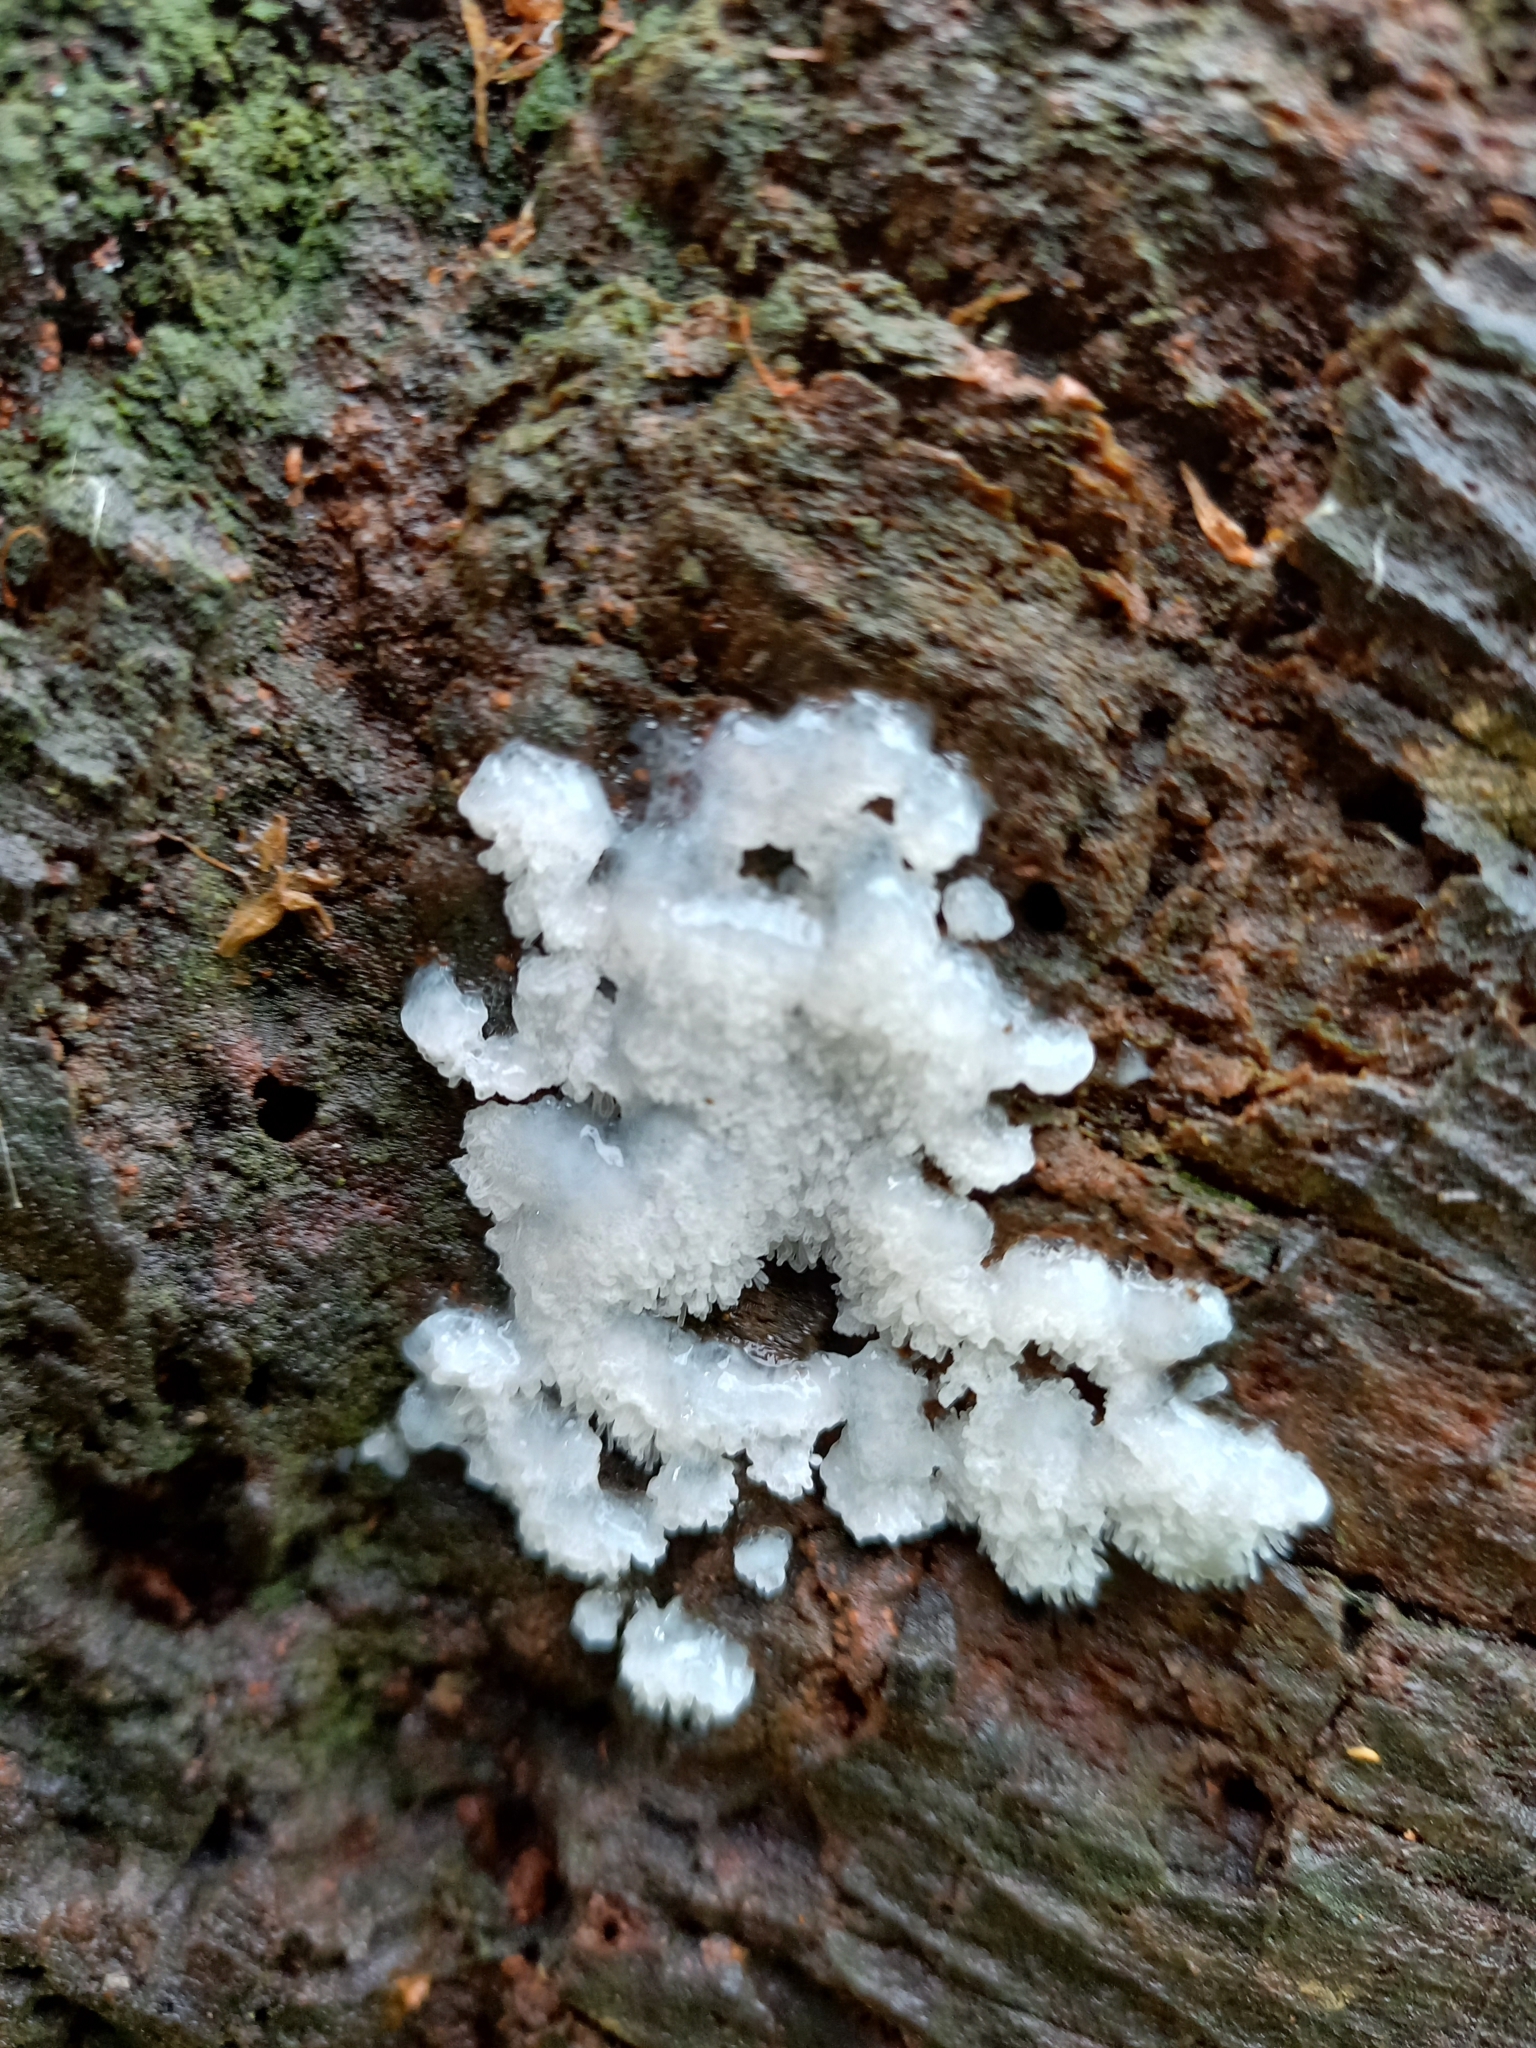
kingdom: Protozoa
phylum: Mycetozoa
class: Protosteliomycetes
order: Ceratiomyxales
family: Ceratiomyxaceae
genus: Ceratiomyxa
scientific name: Ceratiomyxa fruticulosa
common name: Honeycomb coral slime mold
